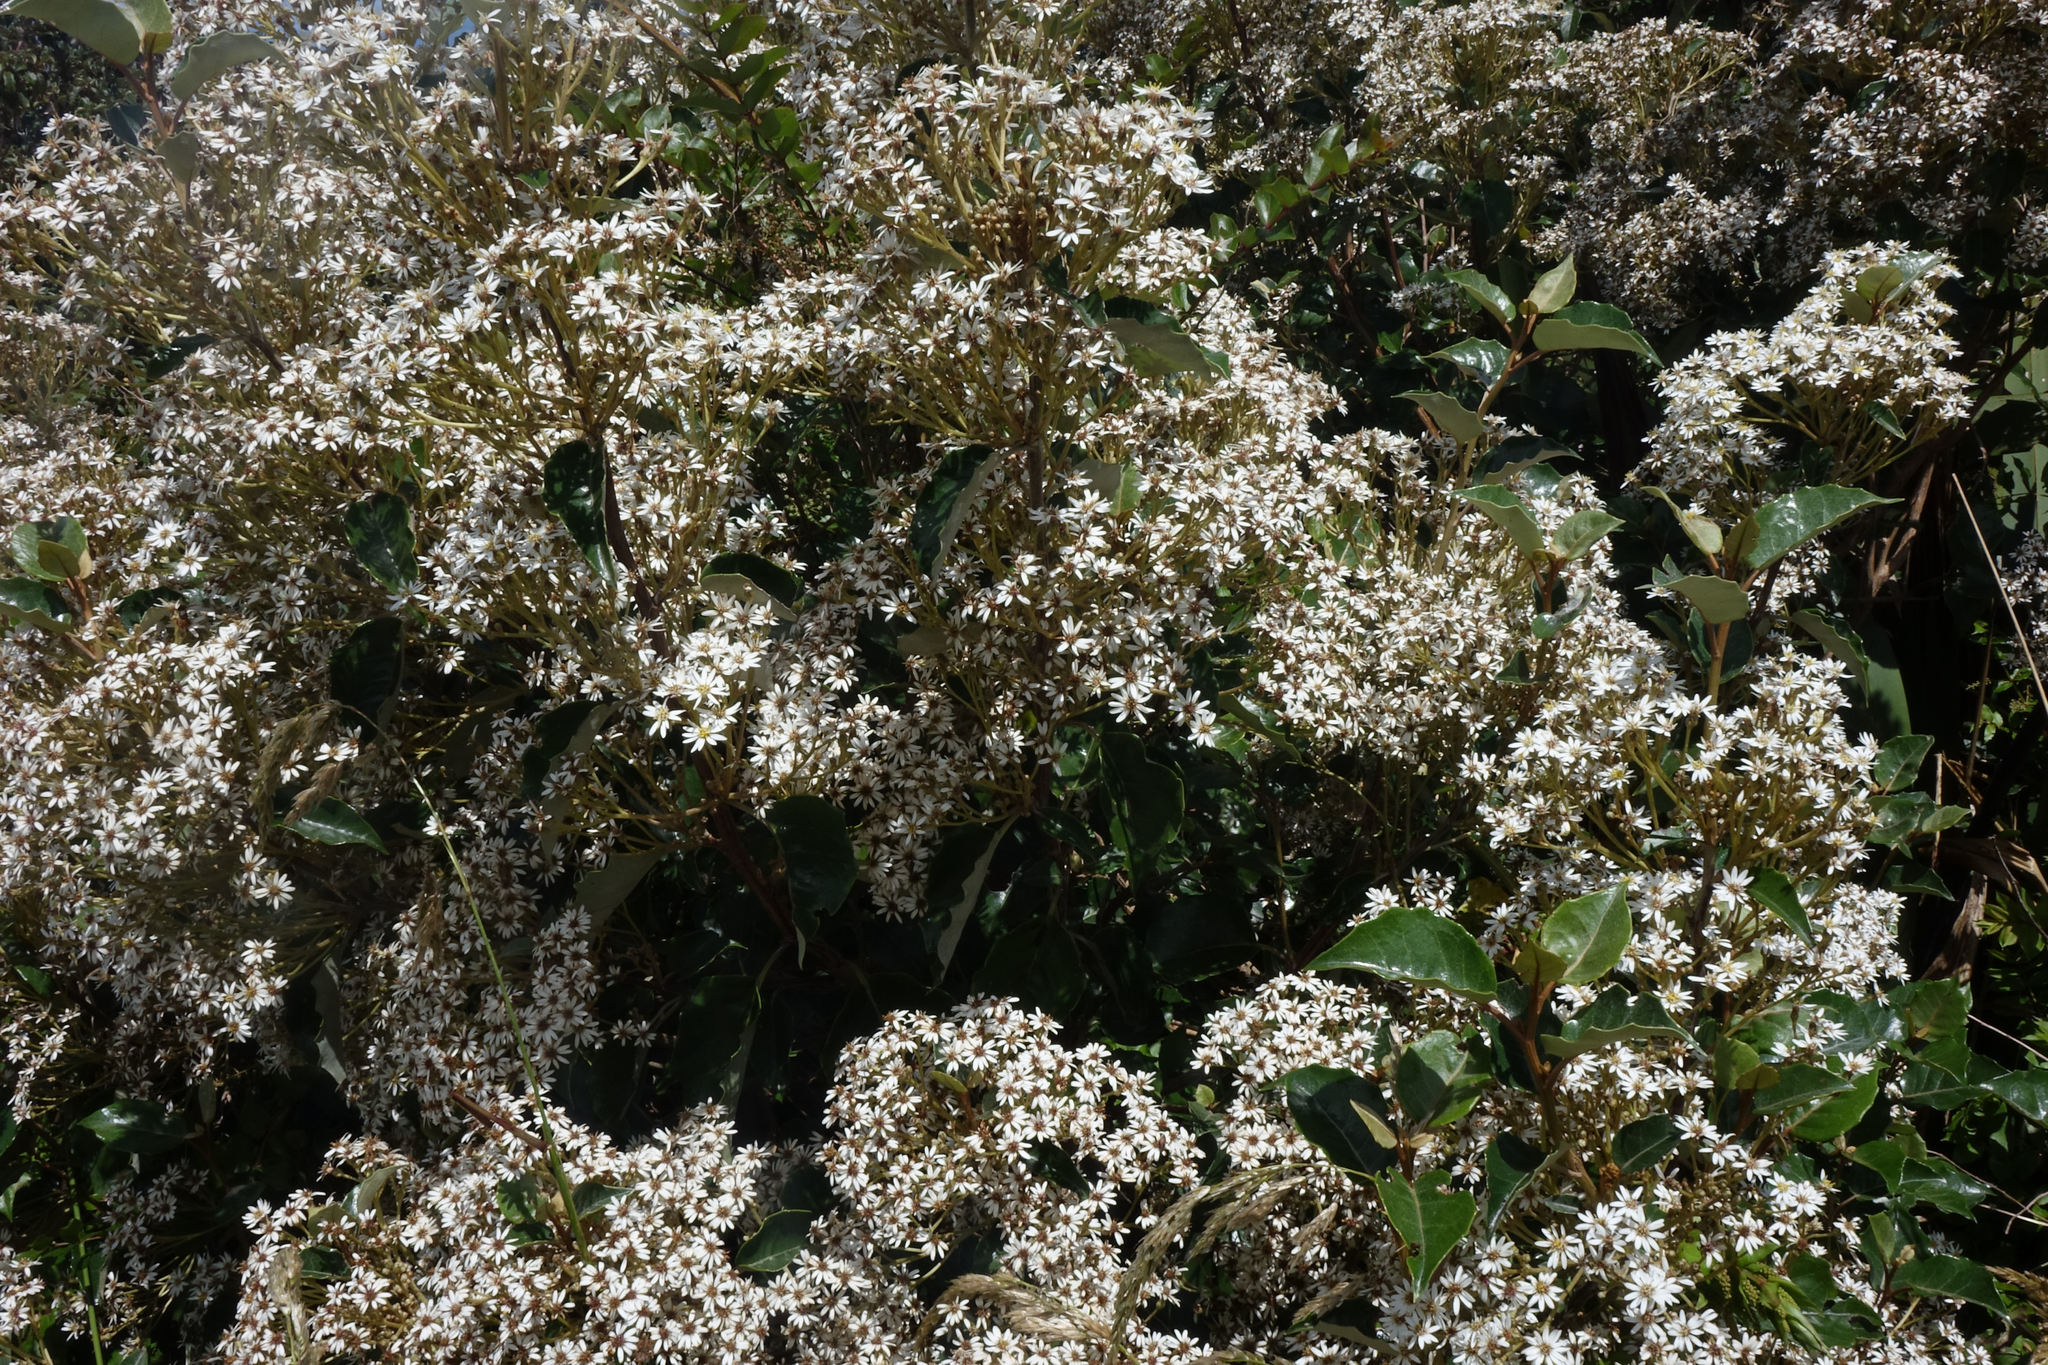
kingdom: Plantae
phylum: Tracheophyta
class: Magnoliopsida
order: Asterales
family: Asteraceae
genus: Olearia
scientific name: Olearia arborescens
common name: Glossy tree daisy
